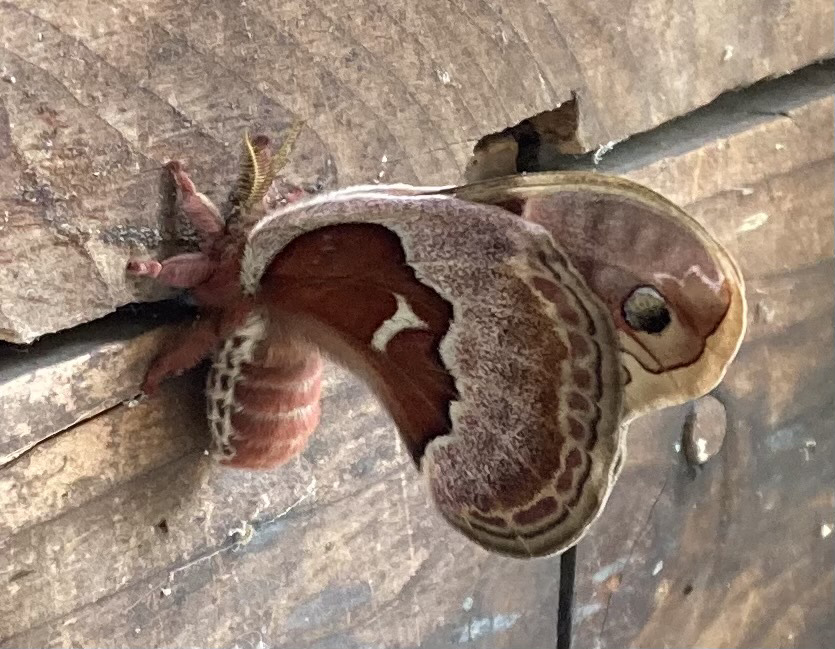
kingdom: Animalia
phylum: Arthropoda
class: Insecta
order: Lepidoptera
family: Saturniidae
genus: Callosamia
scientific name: Callosamia promethea
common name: Promethea silkmoth
